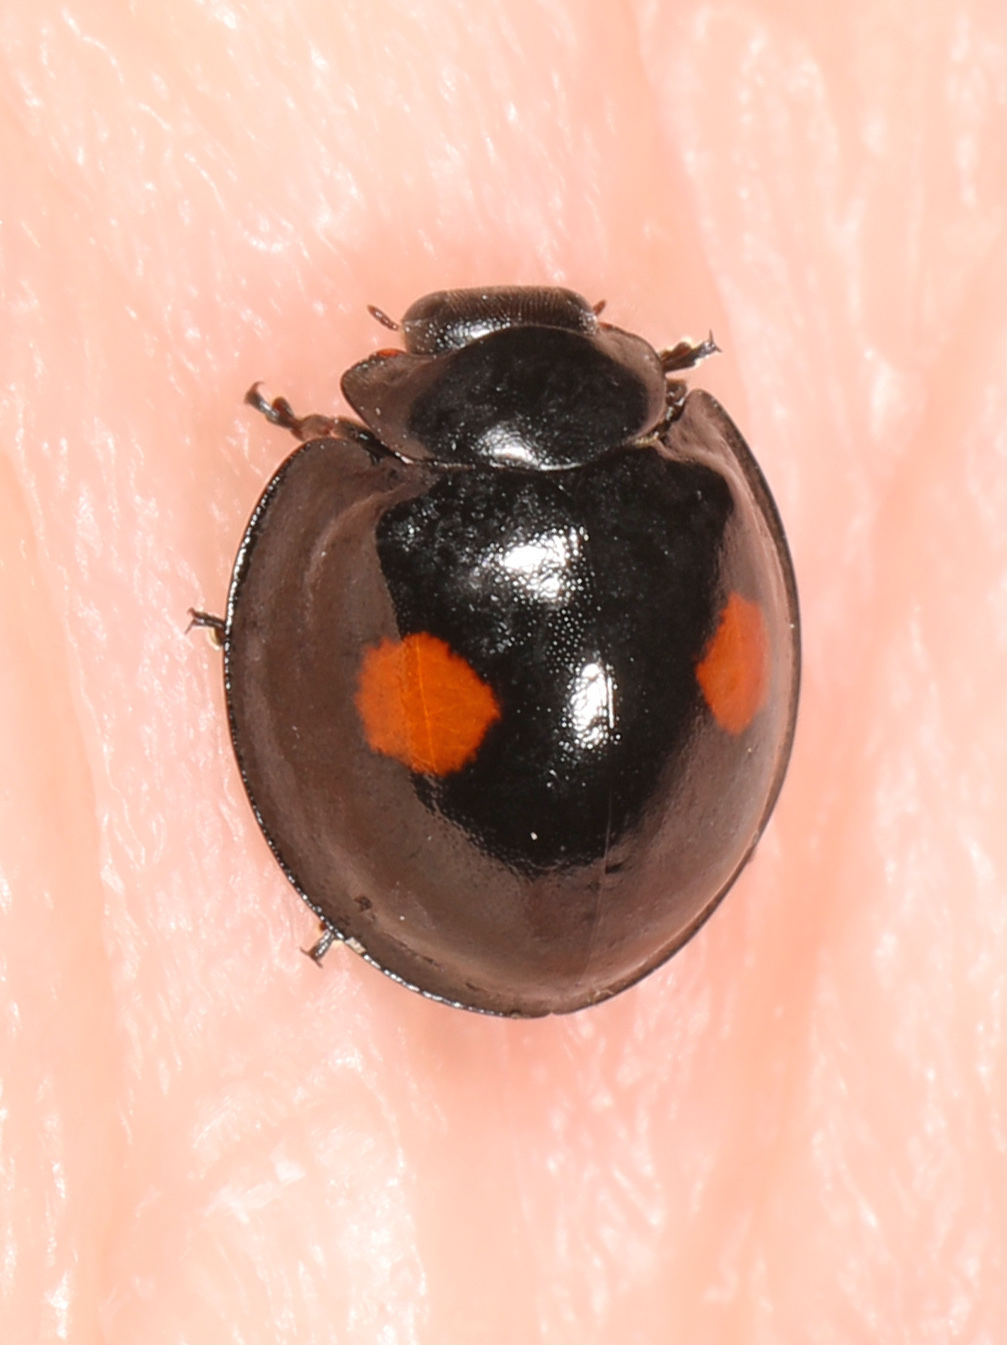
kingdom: Animalia
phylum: Arthropoda
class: Insecta
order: Coleoptera
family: Coccinellidae
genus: Chilocorus
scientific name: Chilocorus stigma
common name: Twicestabbed lady beetle
